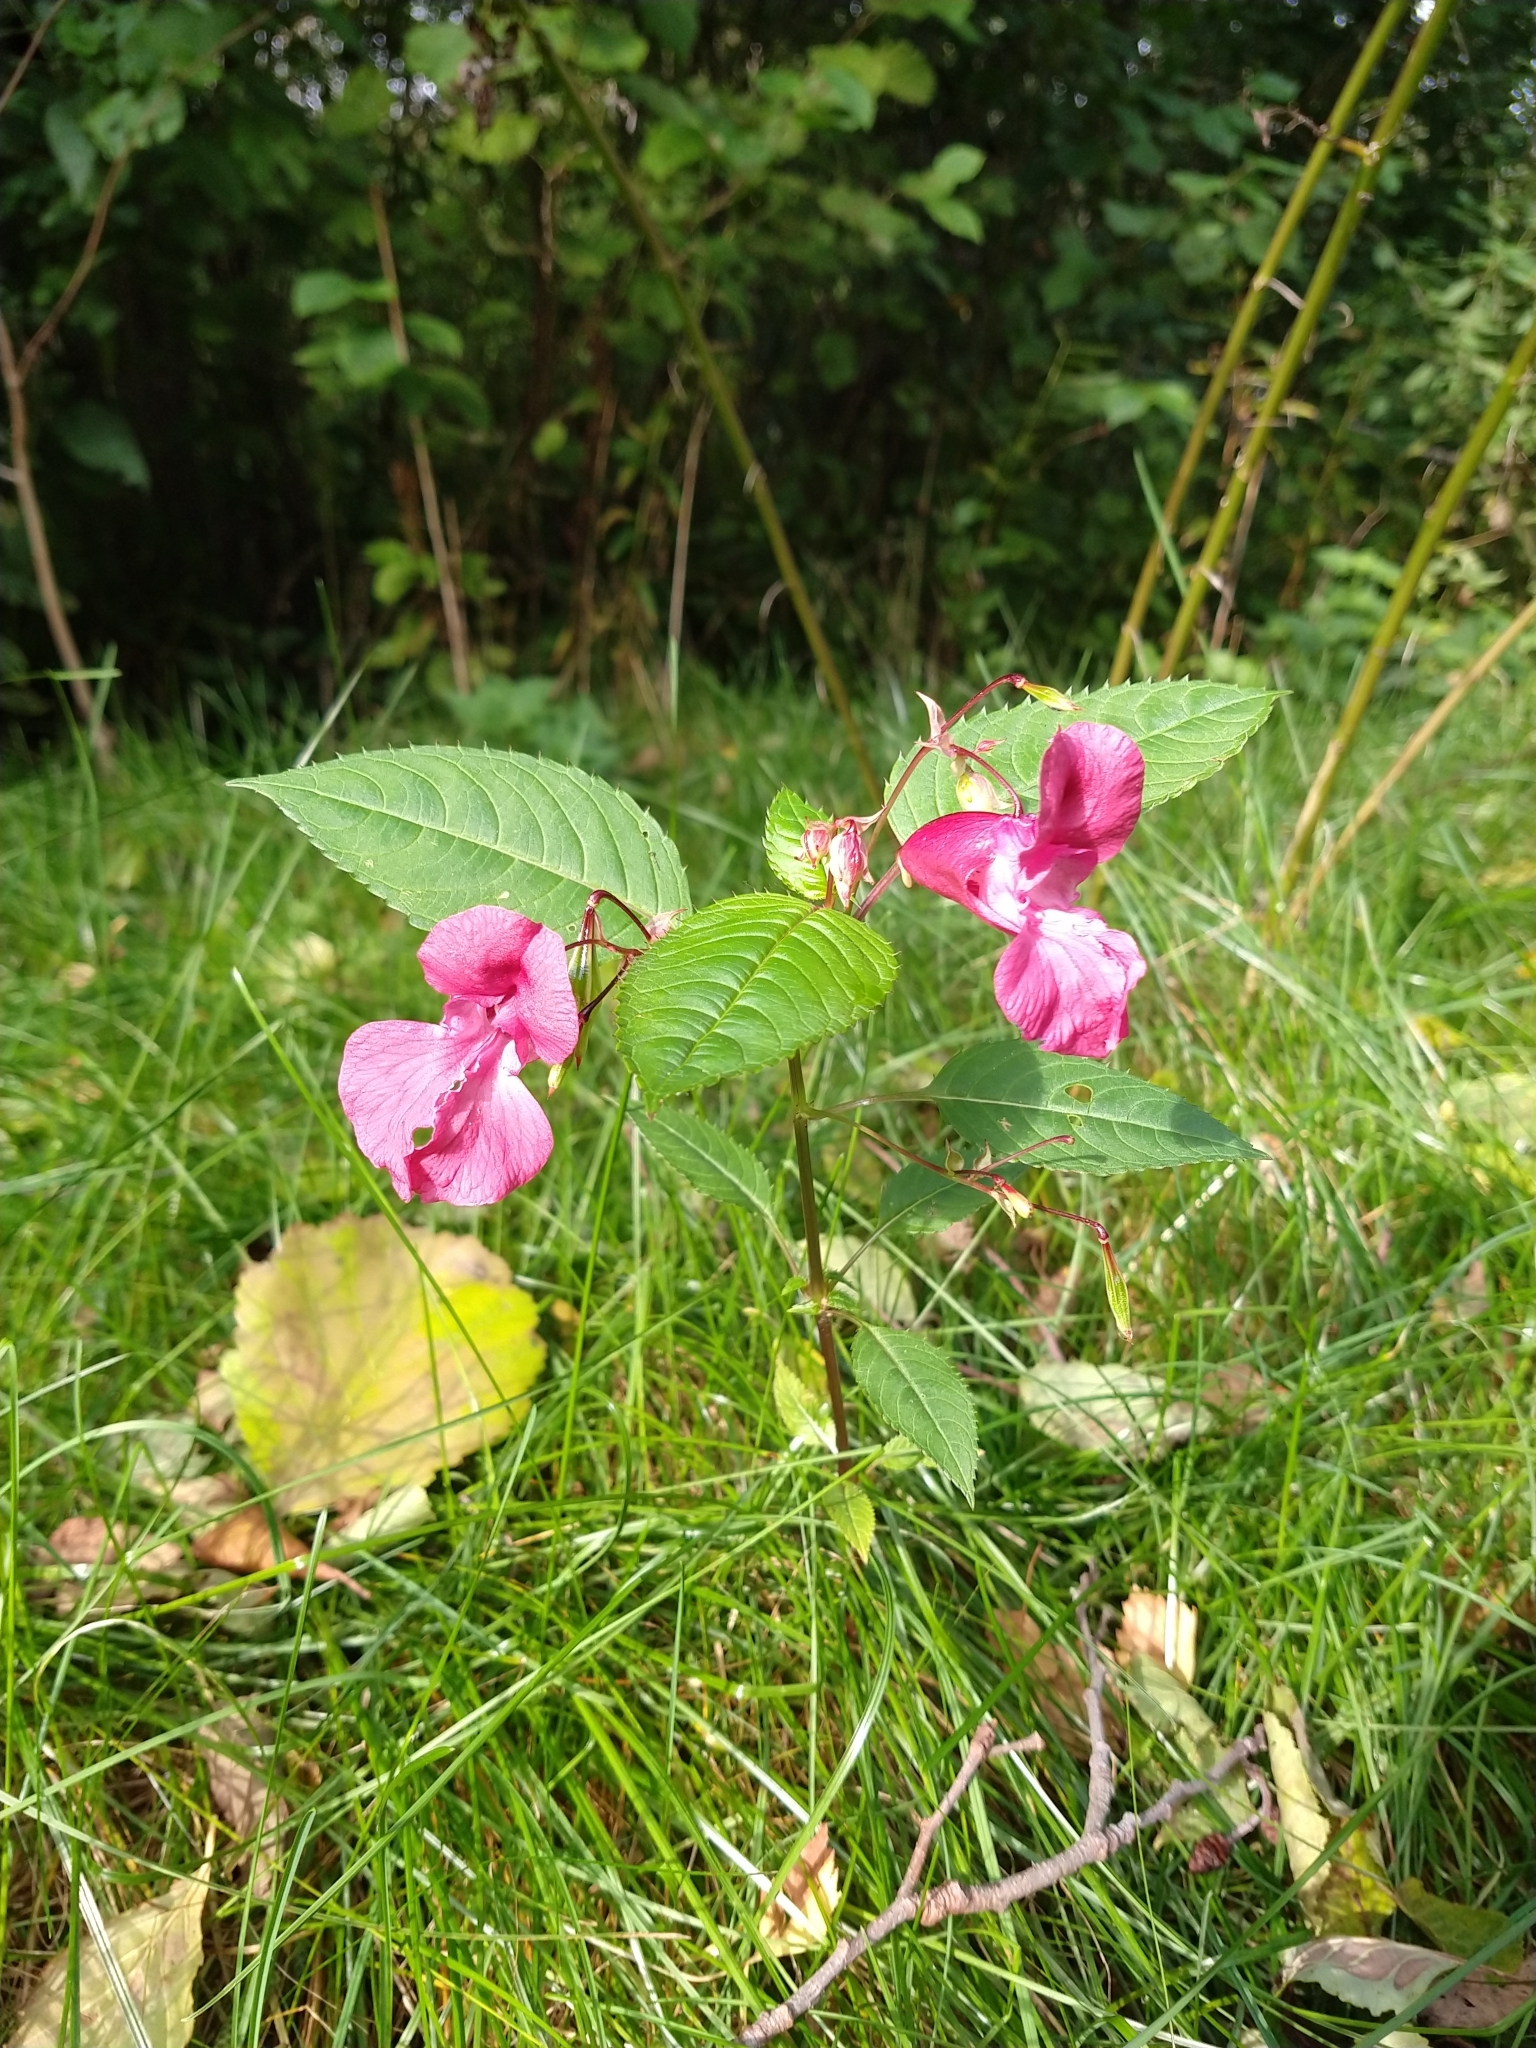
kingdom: Plantae
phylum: Tracheophyta
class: Magnoliopsida
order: Ericales
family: Balsaminaceae
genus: Impatiens
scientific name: Impatiens glandulifera
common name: Himalayan balsam
